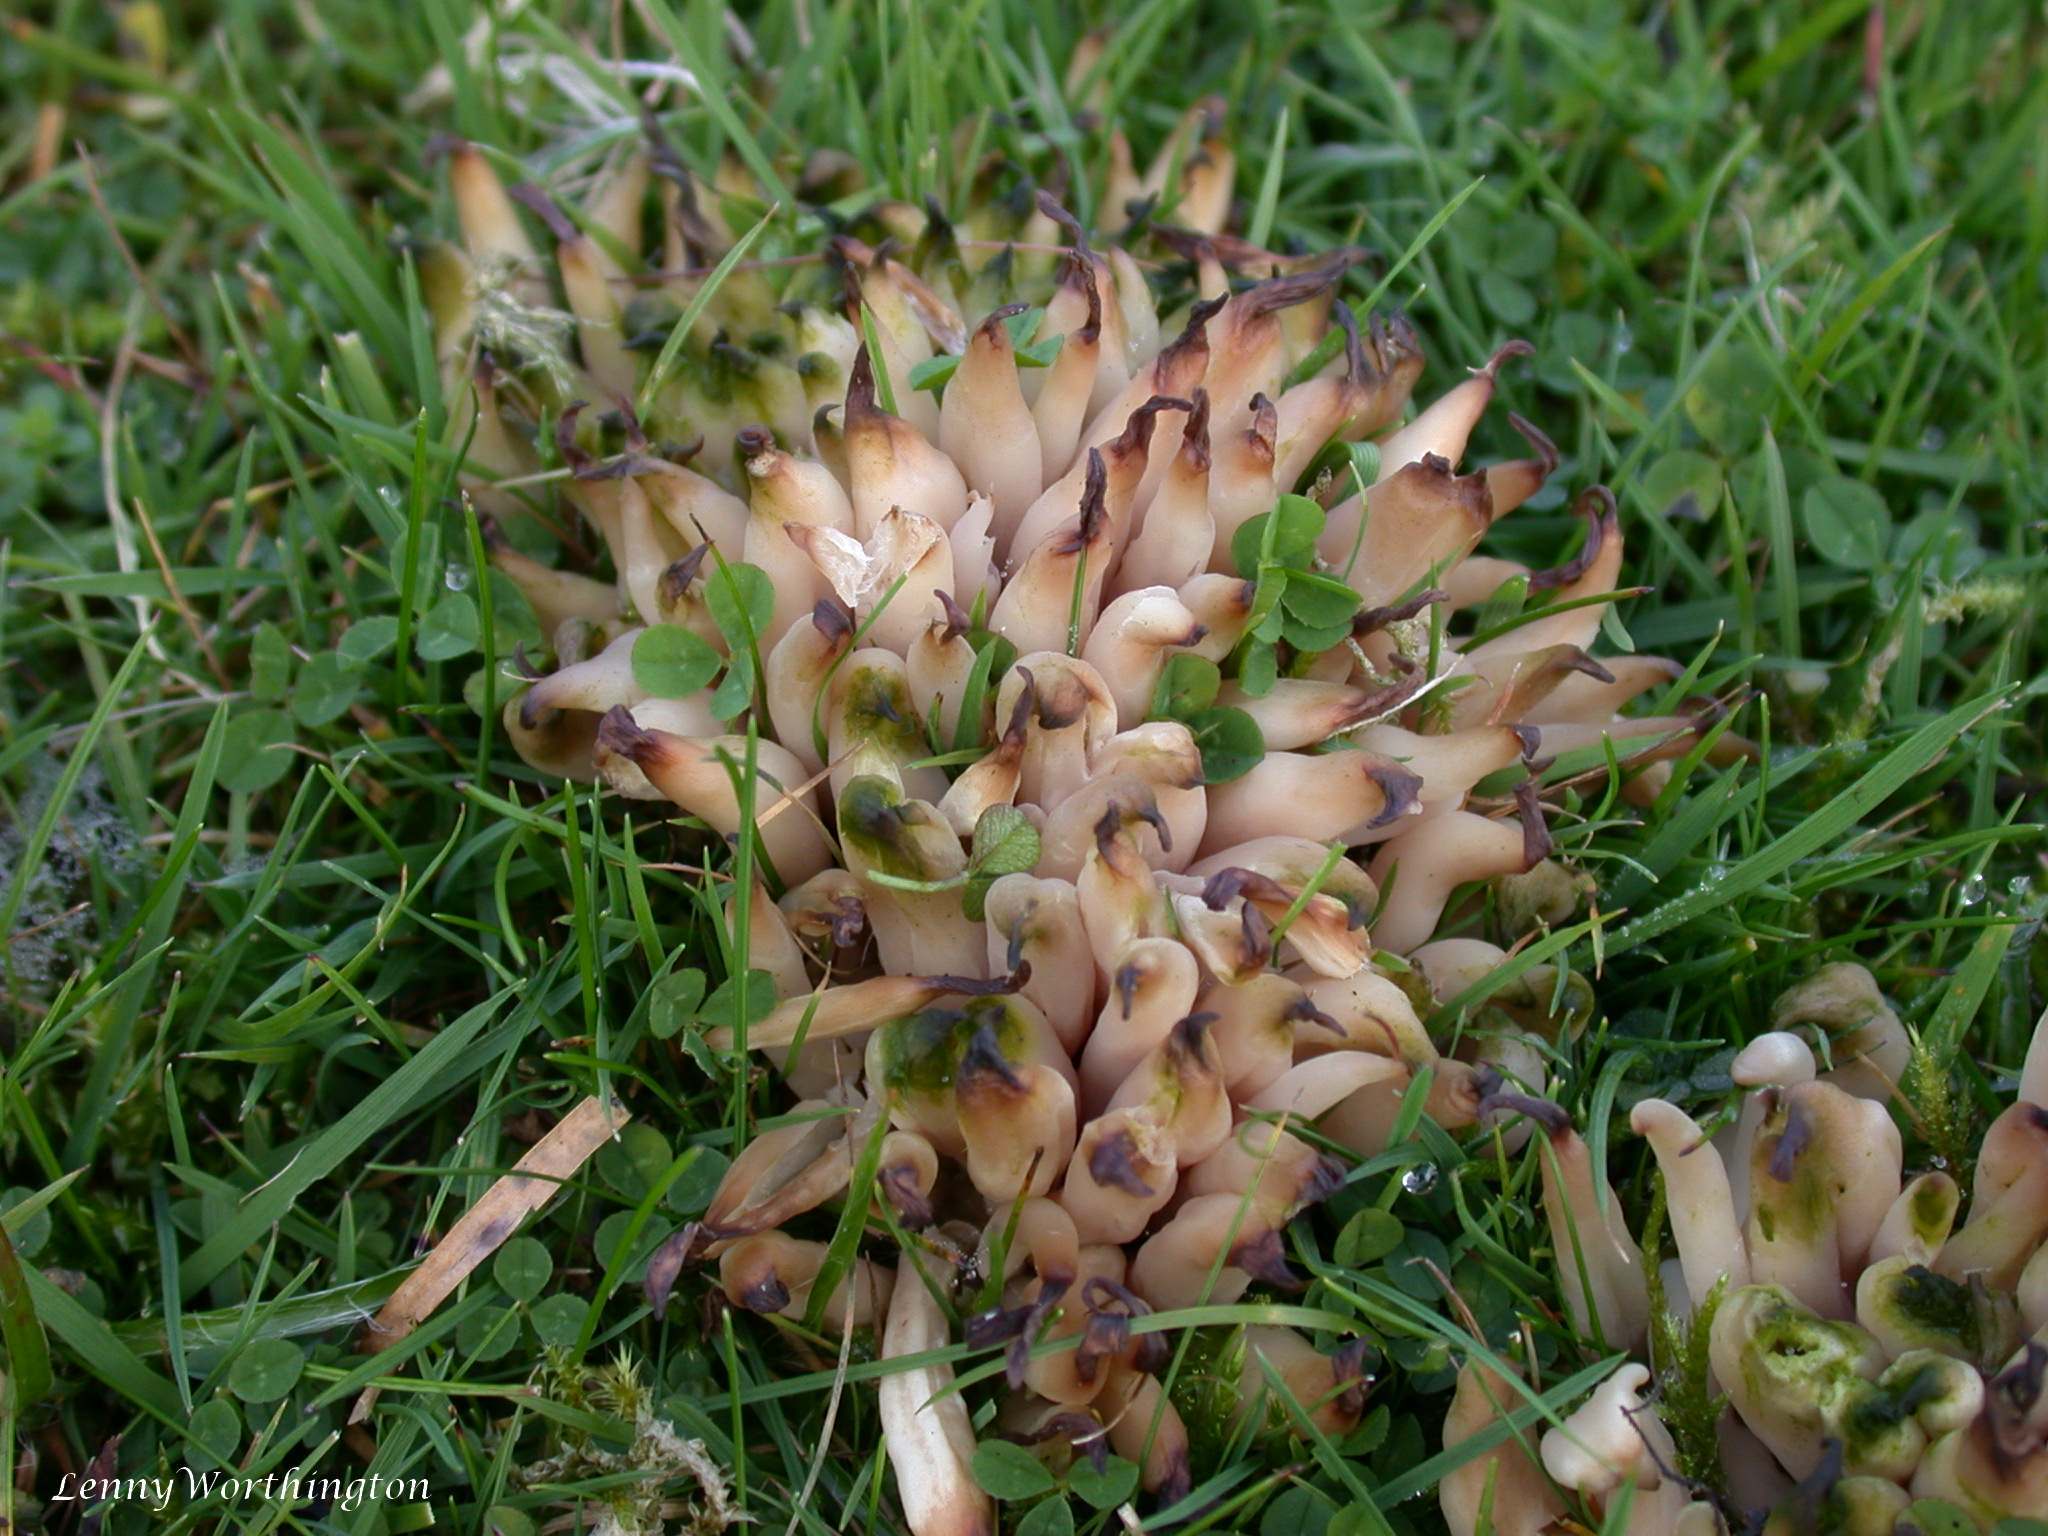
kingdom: Fungi
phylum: Basidiomycota
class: Agaricomycetes
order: Agaricales
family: Clavariaceae
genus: Clavaria
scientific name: Clavaria fumosa
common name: Smoky spindles
